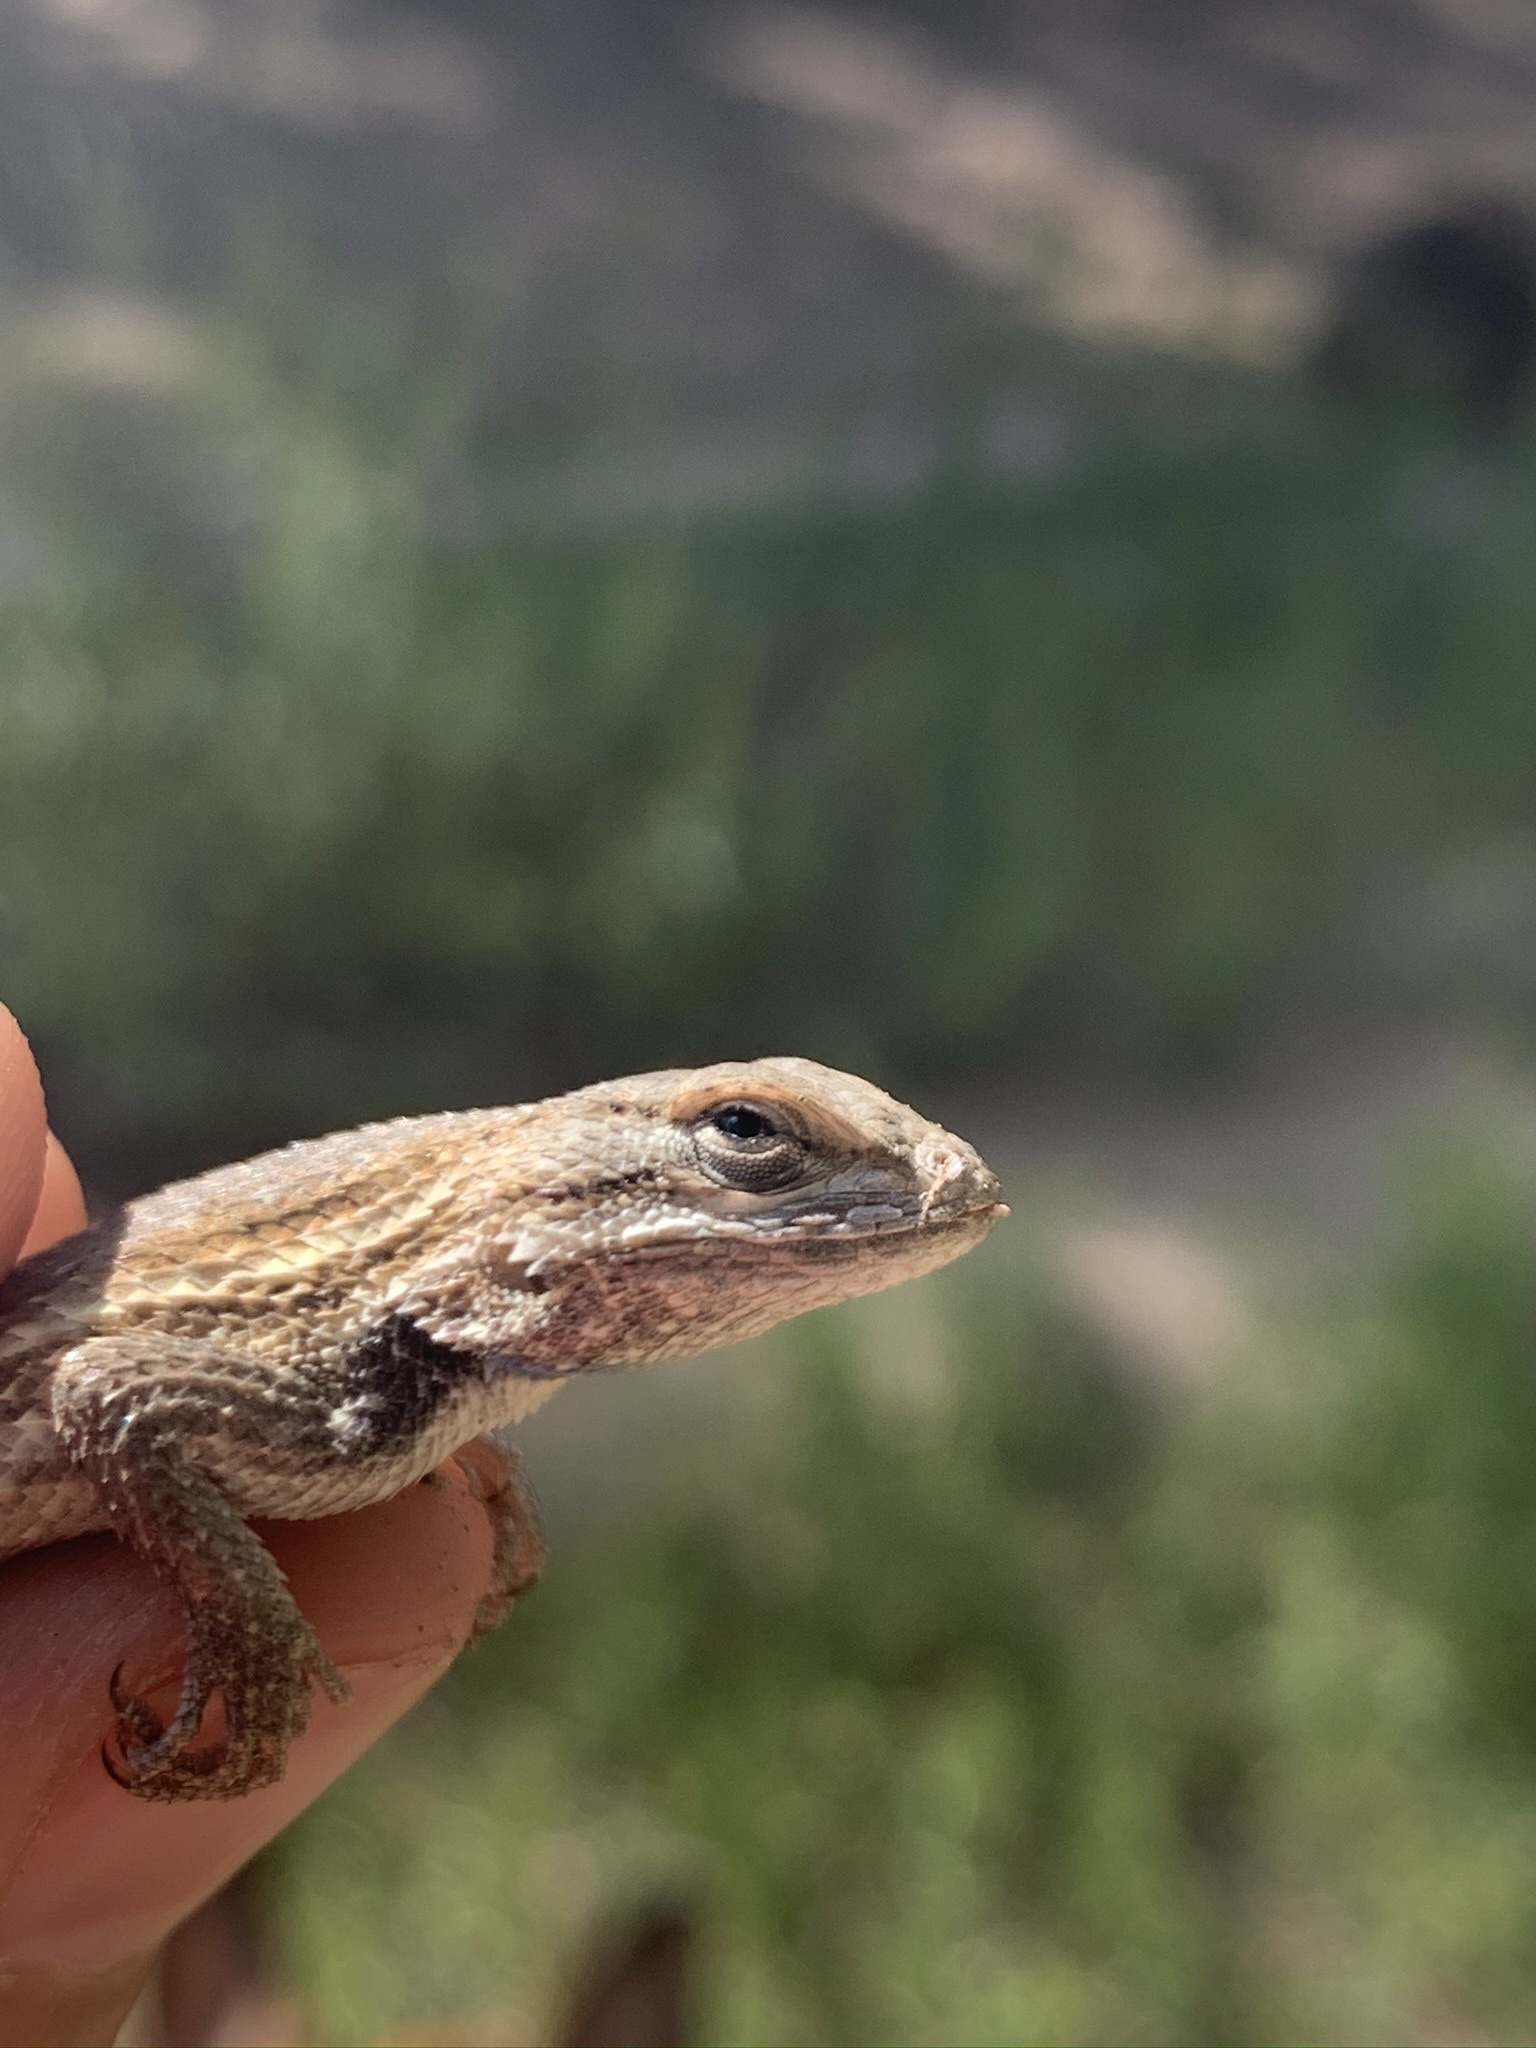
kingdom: Animalia
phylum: Chordata
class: Squamata
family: Phrynosomatidae
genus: Sceloporus
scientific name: Sceloporus cowlesi
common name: White sands prairie lizard
